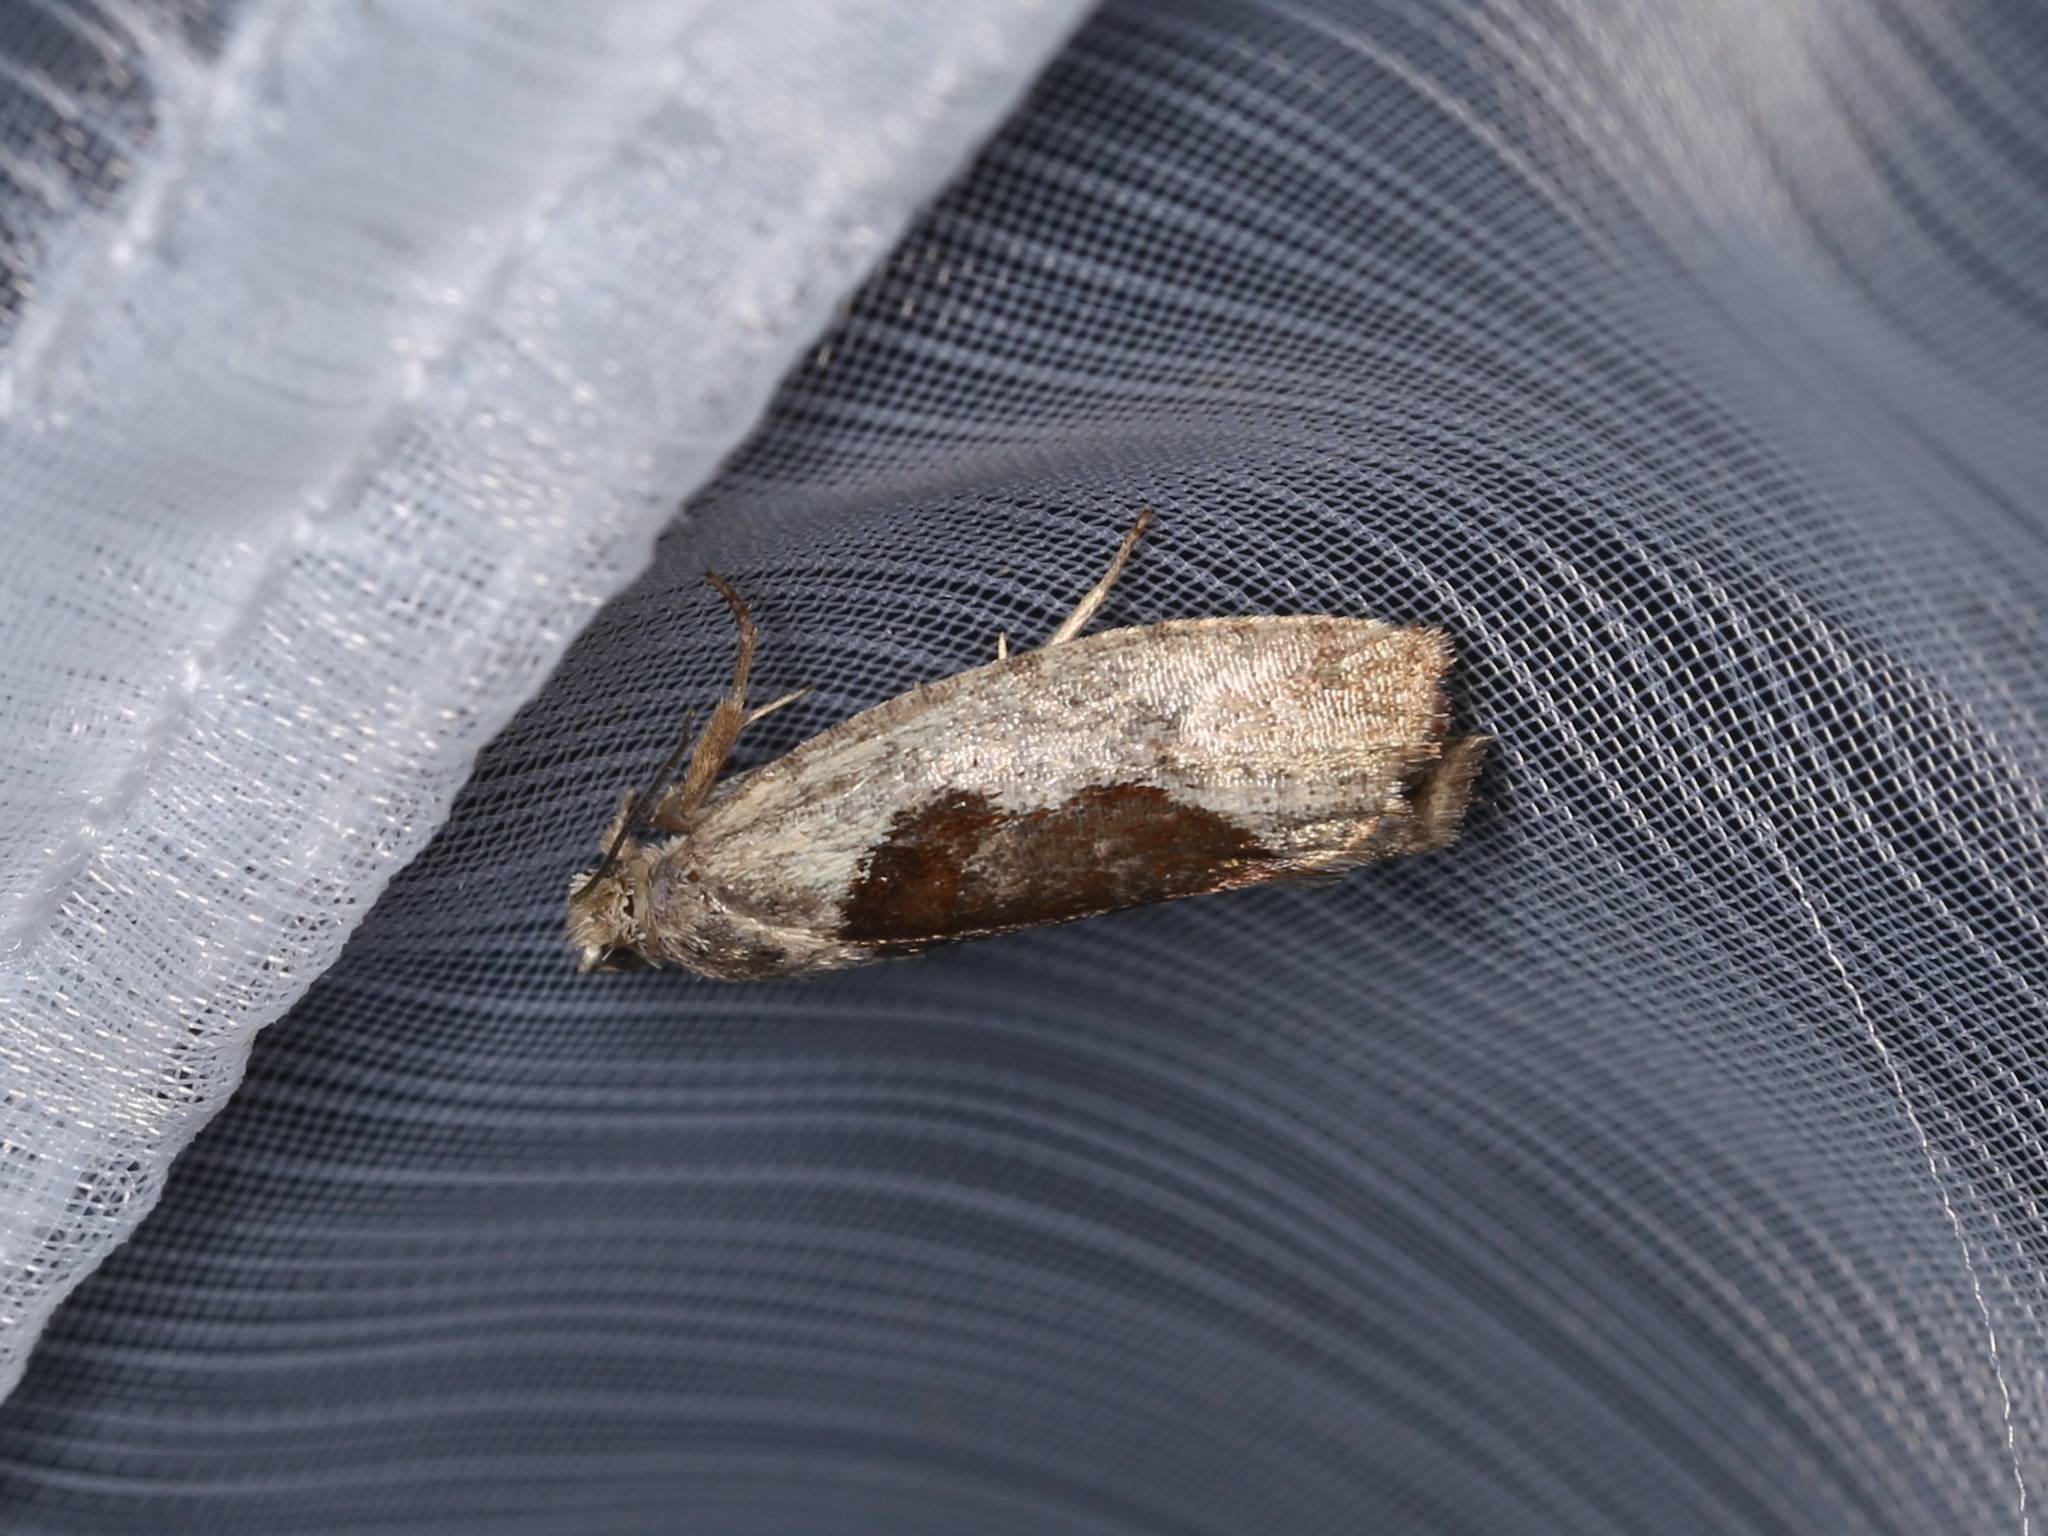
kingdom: Animalia
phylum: Arthropoda
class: Insecta
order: Lepidoptera
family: Tortricidae
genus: Epinotia
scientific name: Epinotia solandriana
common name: Variable bell
